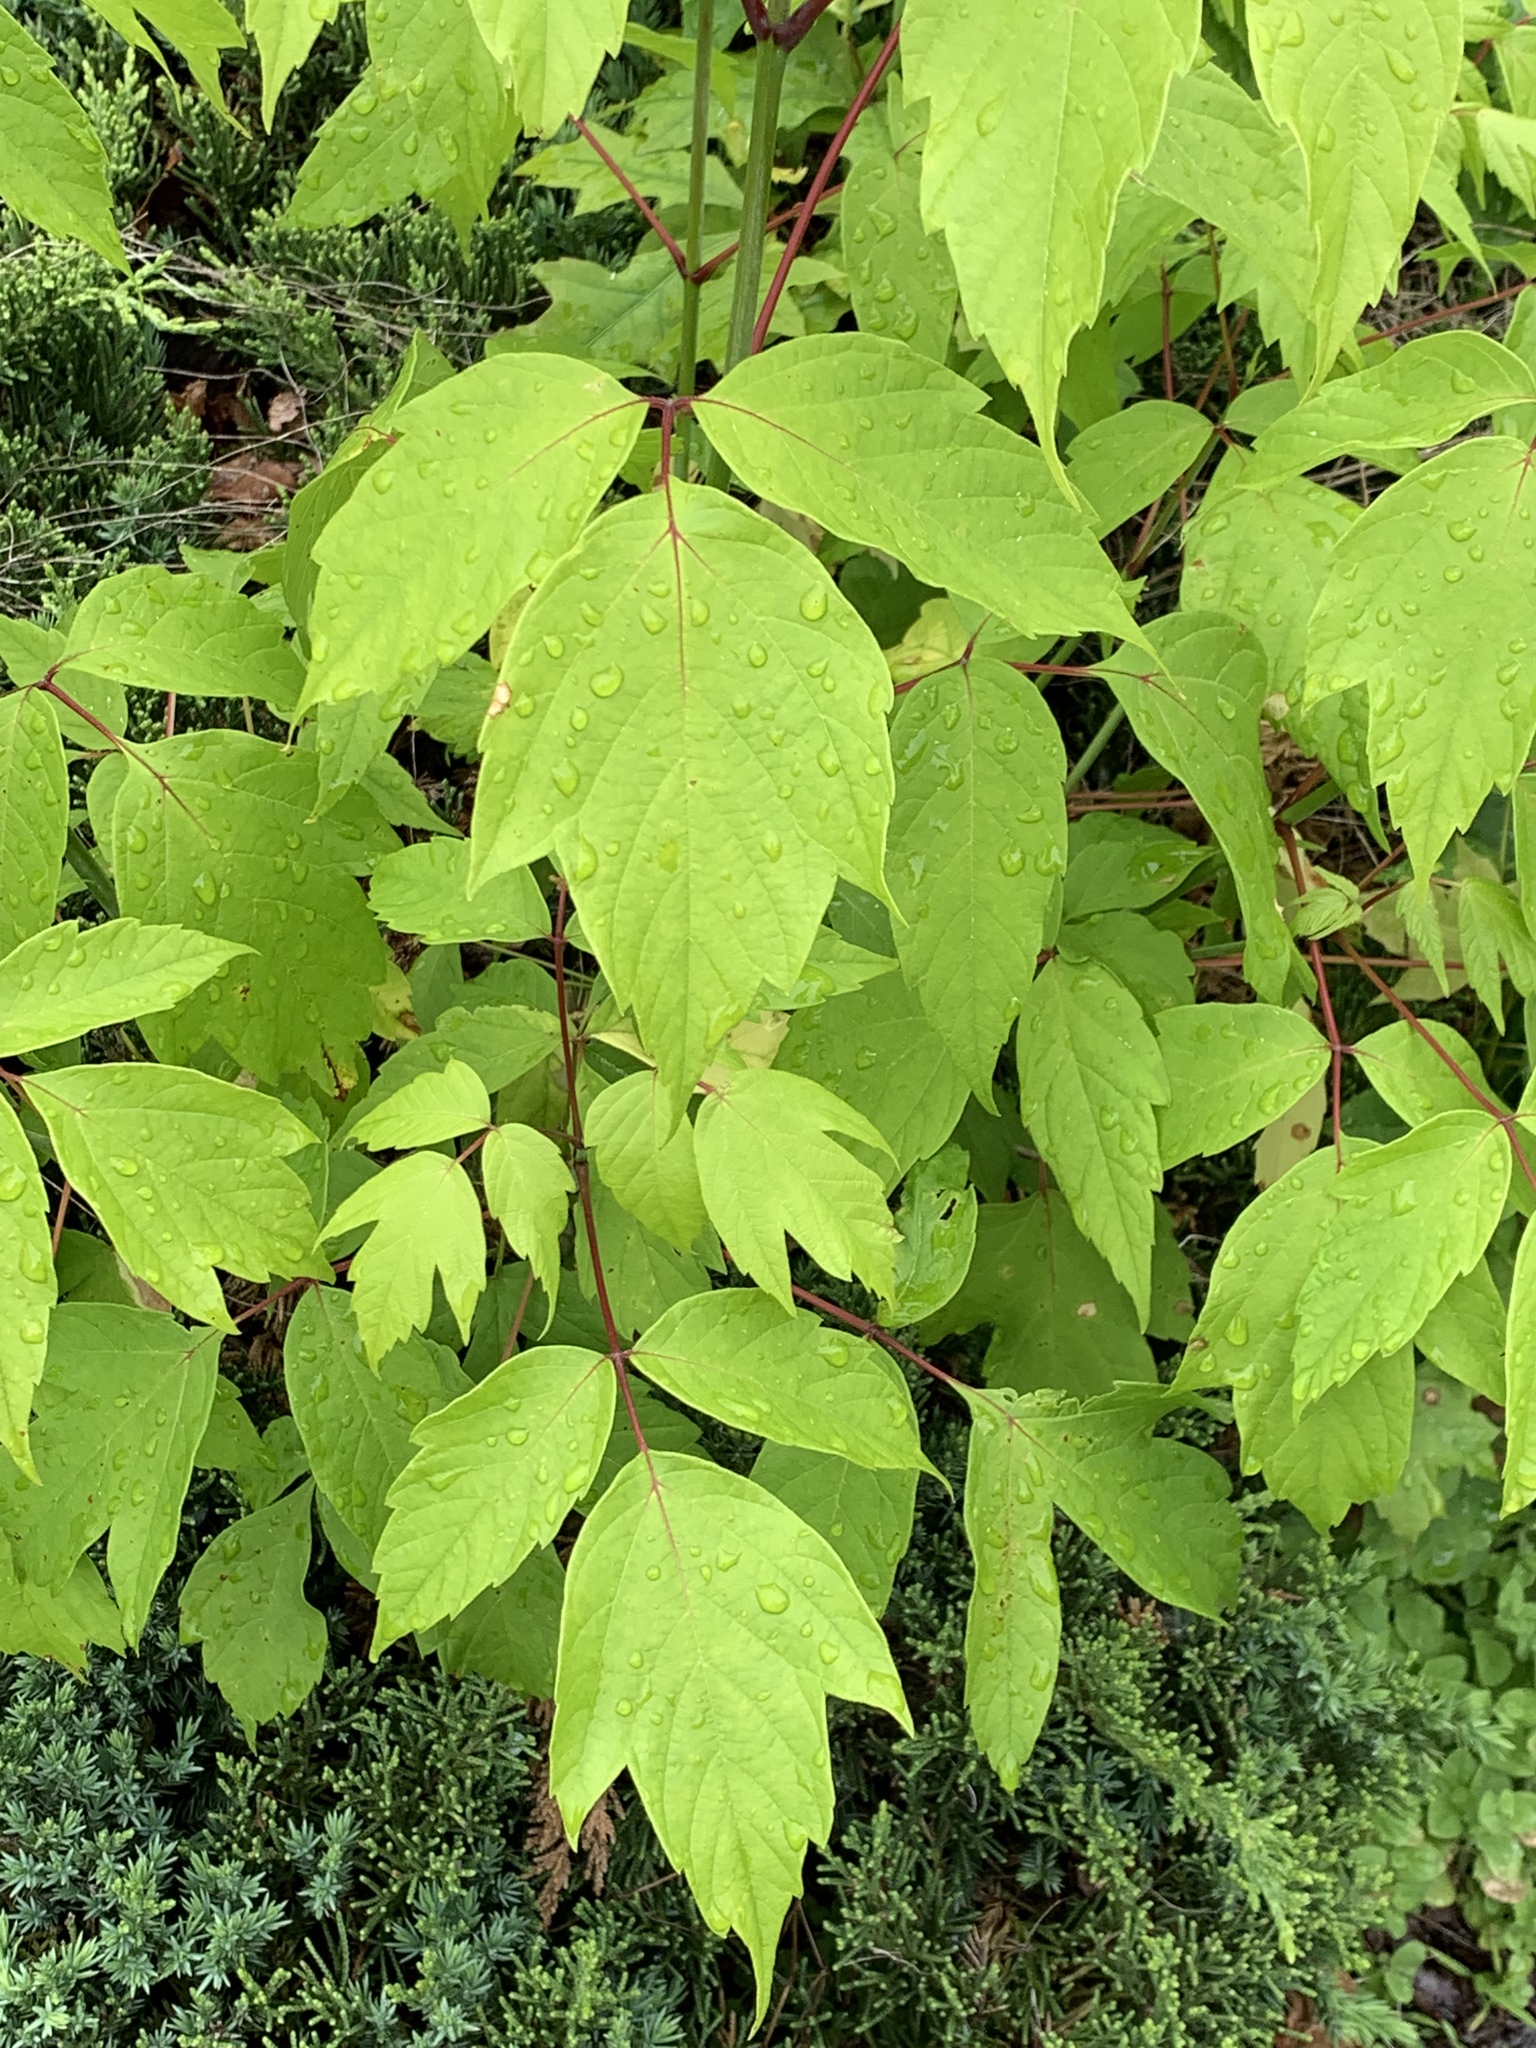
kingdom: Plantae
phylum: Tracheophyta
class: Magnoliopsida
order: Sapindales
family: Sapindaceae
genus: Acer
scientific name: Acer negundo
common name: Ashleaf maple
